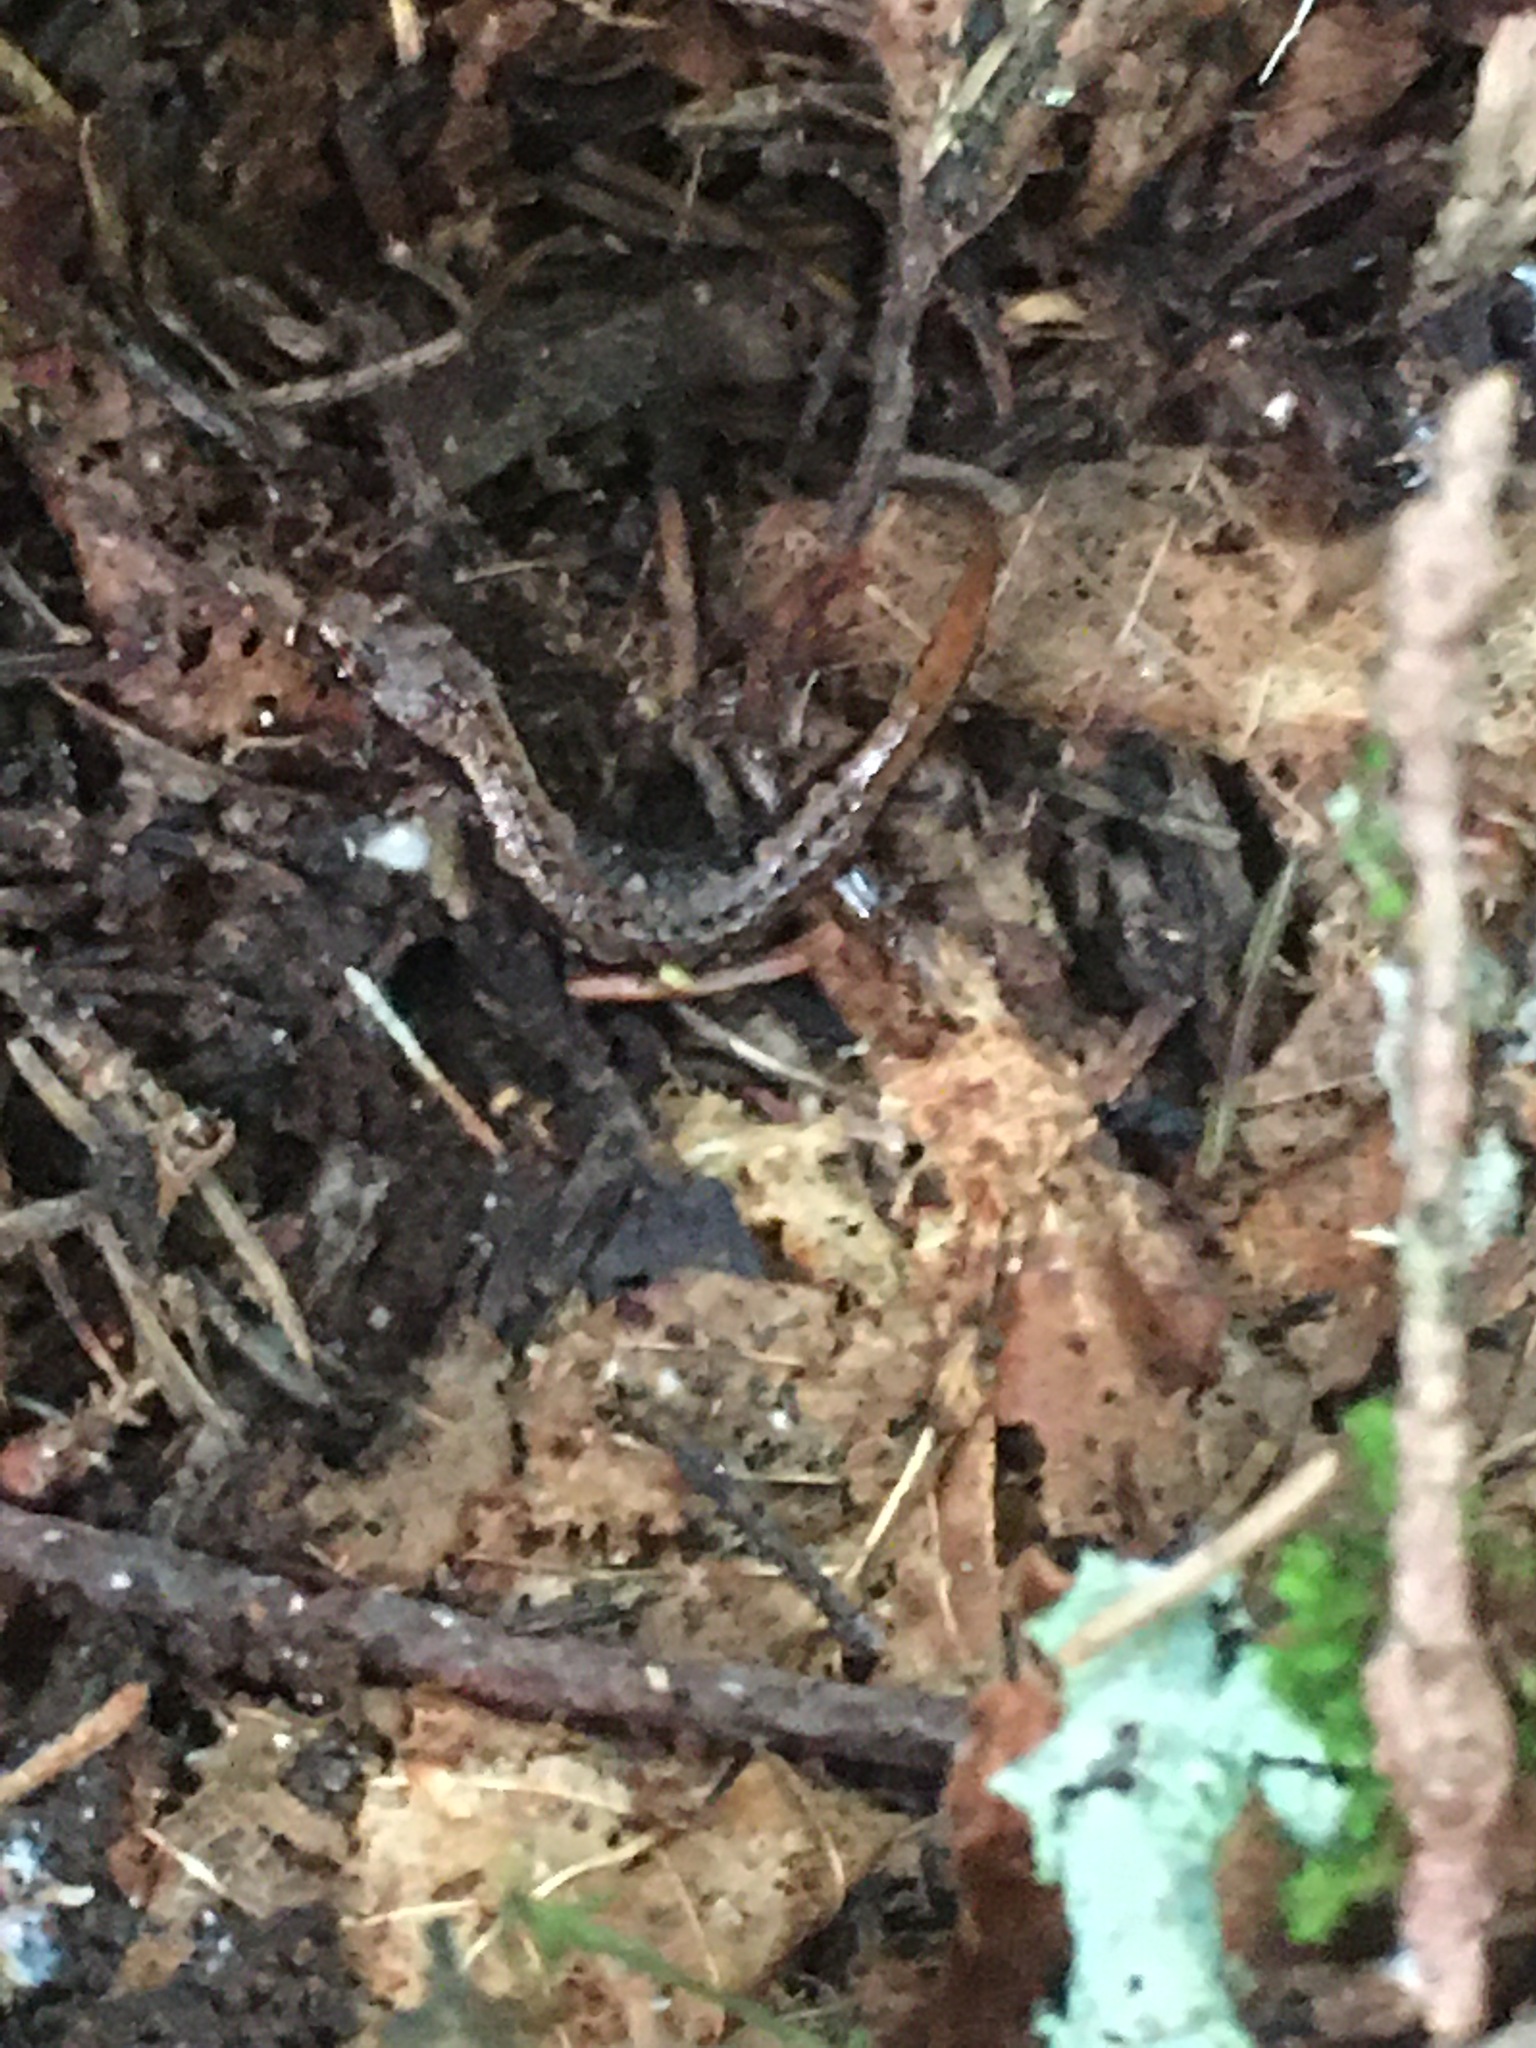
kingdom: Animalia
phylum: Chordata
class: Amphibia
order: Caudata
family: Plethodontidae
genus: Desmognathus
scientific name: Desmognathus organi
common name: Northern pygmy salamander
